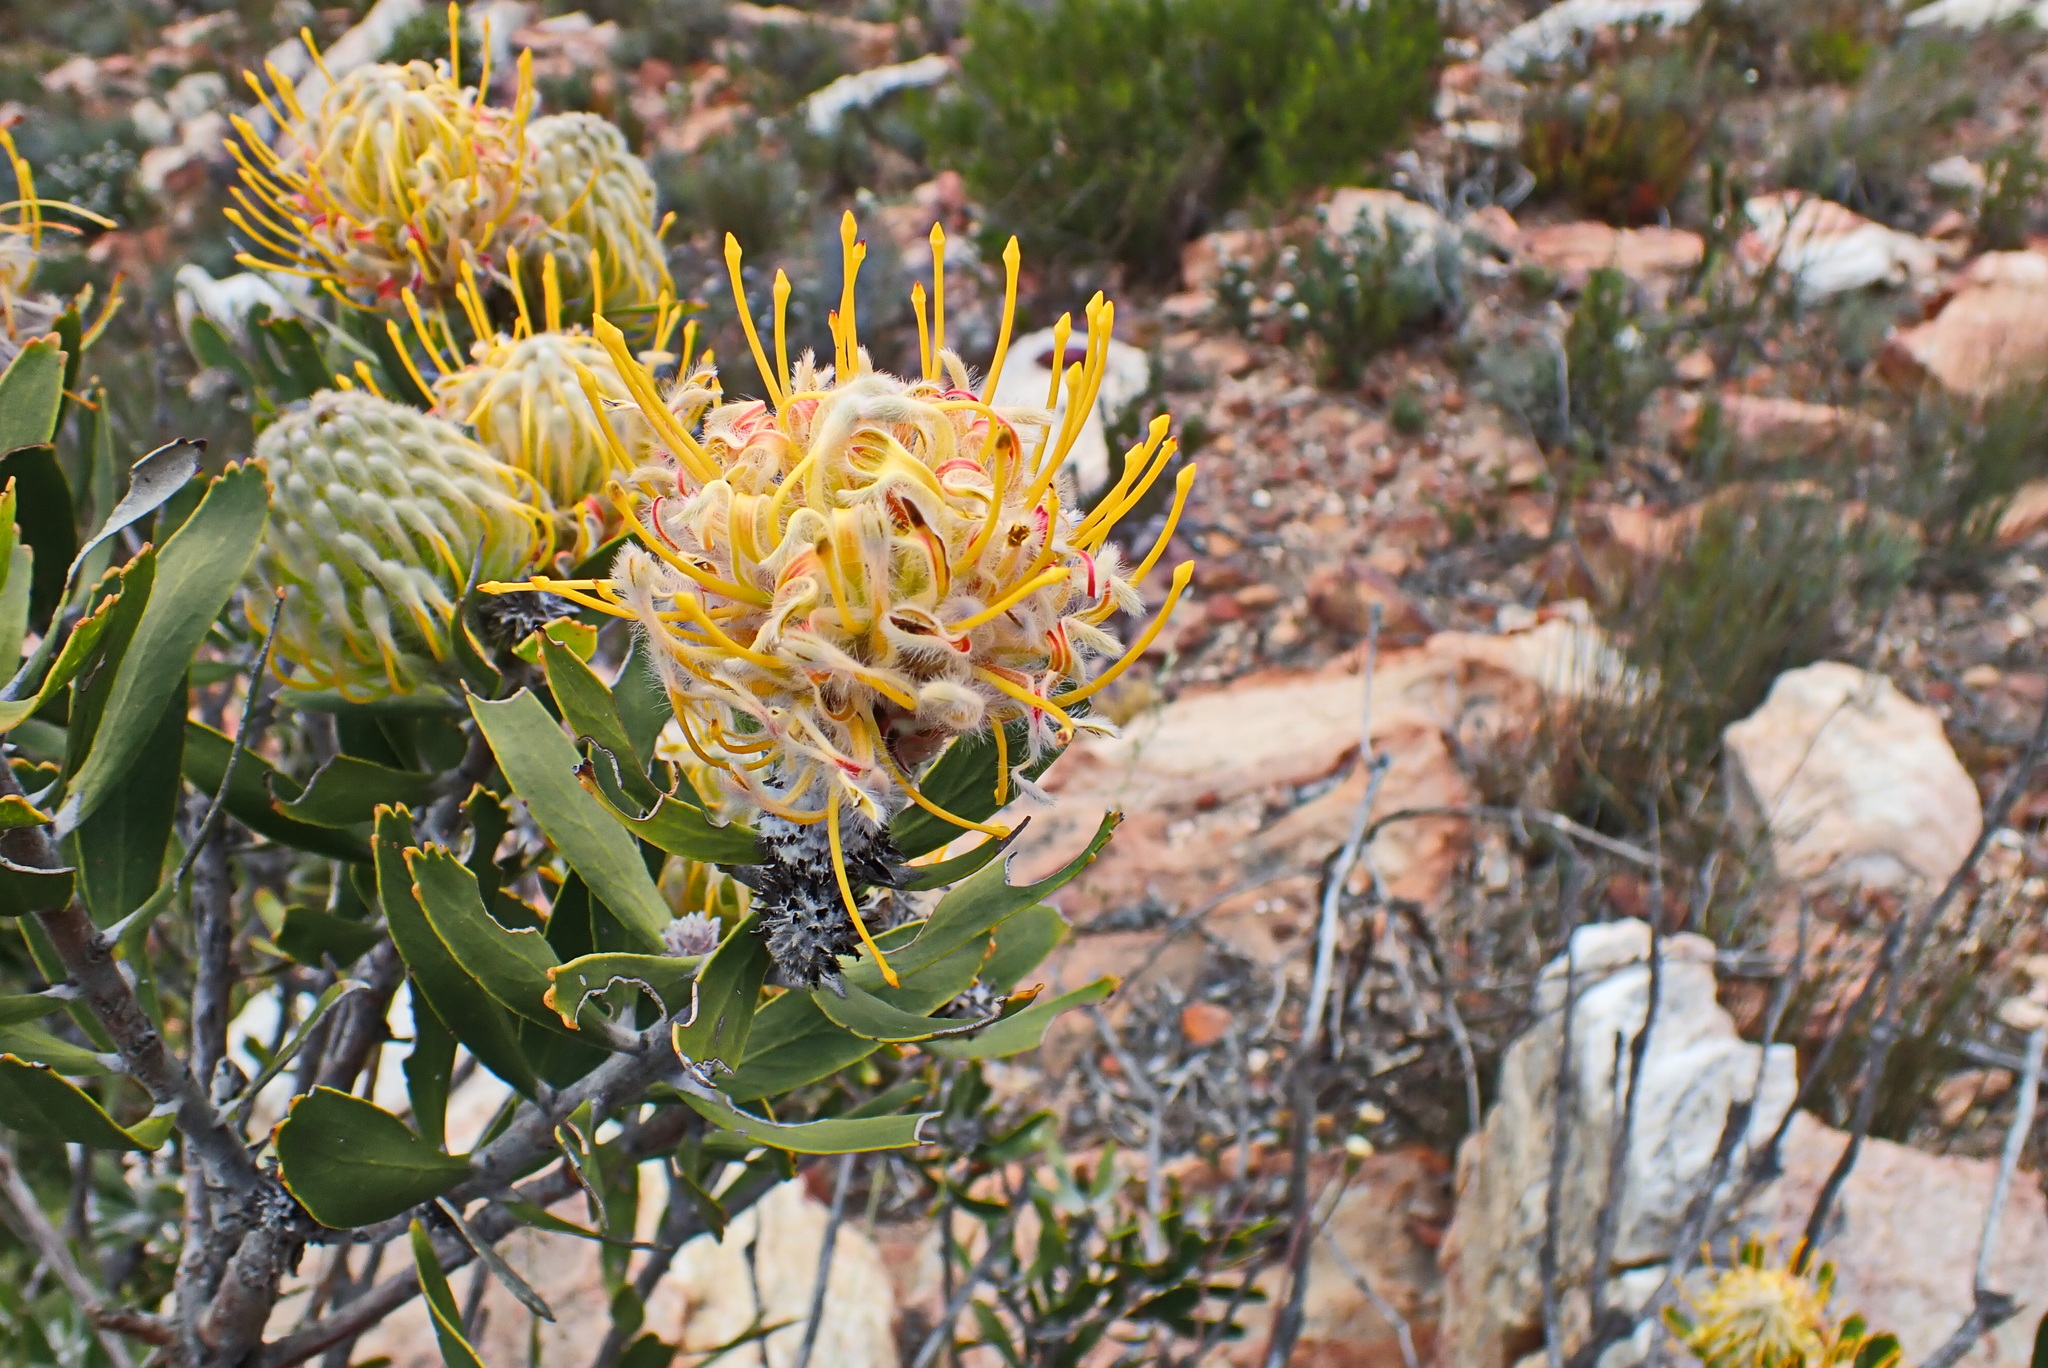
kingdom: Plantae
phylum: Tracheophyta
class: Magnoliopsida
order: Proteales
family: Proteaceae
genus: Leucospermum
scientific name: Leucospermum cuneiforme
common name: Common pincushion
